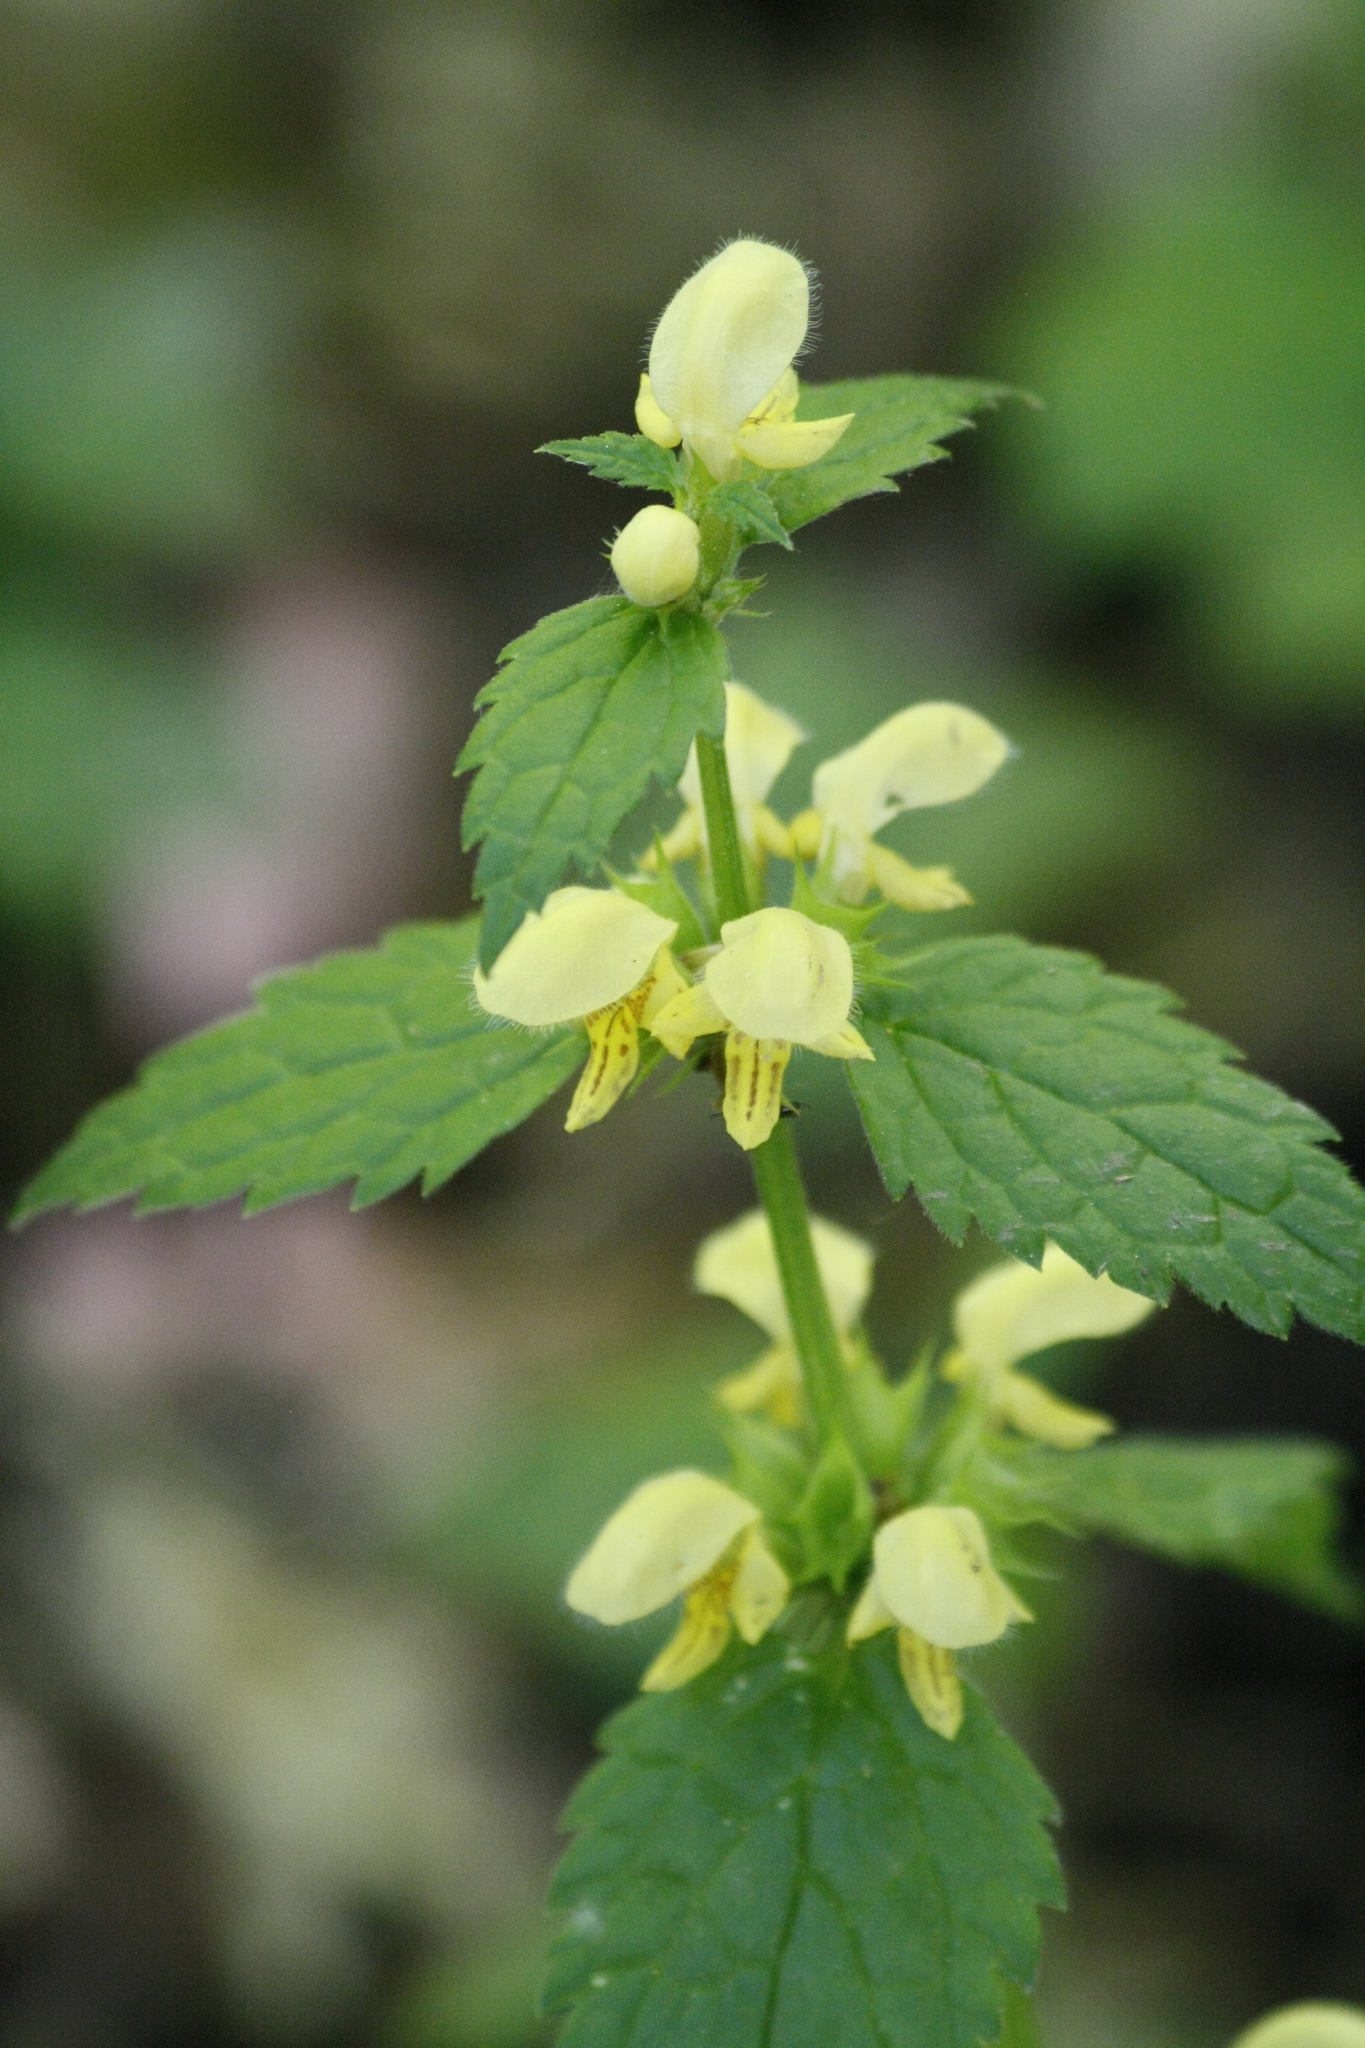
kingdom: Plantae
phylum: Tracheophyta
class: Magnoliopsida
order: Lamiales
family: Lamiaceae
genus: Lamium
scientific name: Lamium galeobdolon
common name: Yellow archangel
